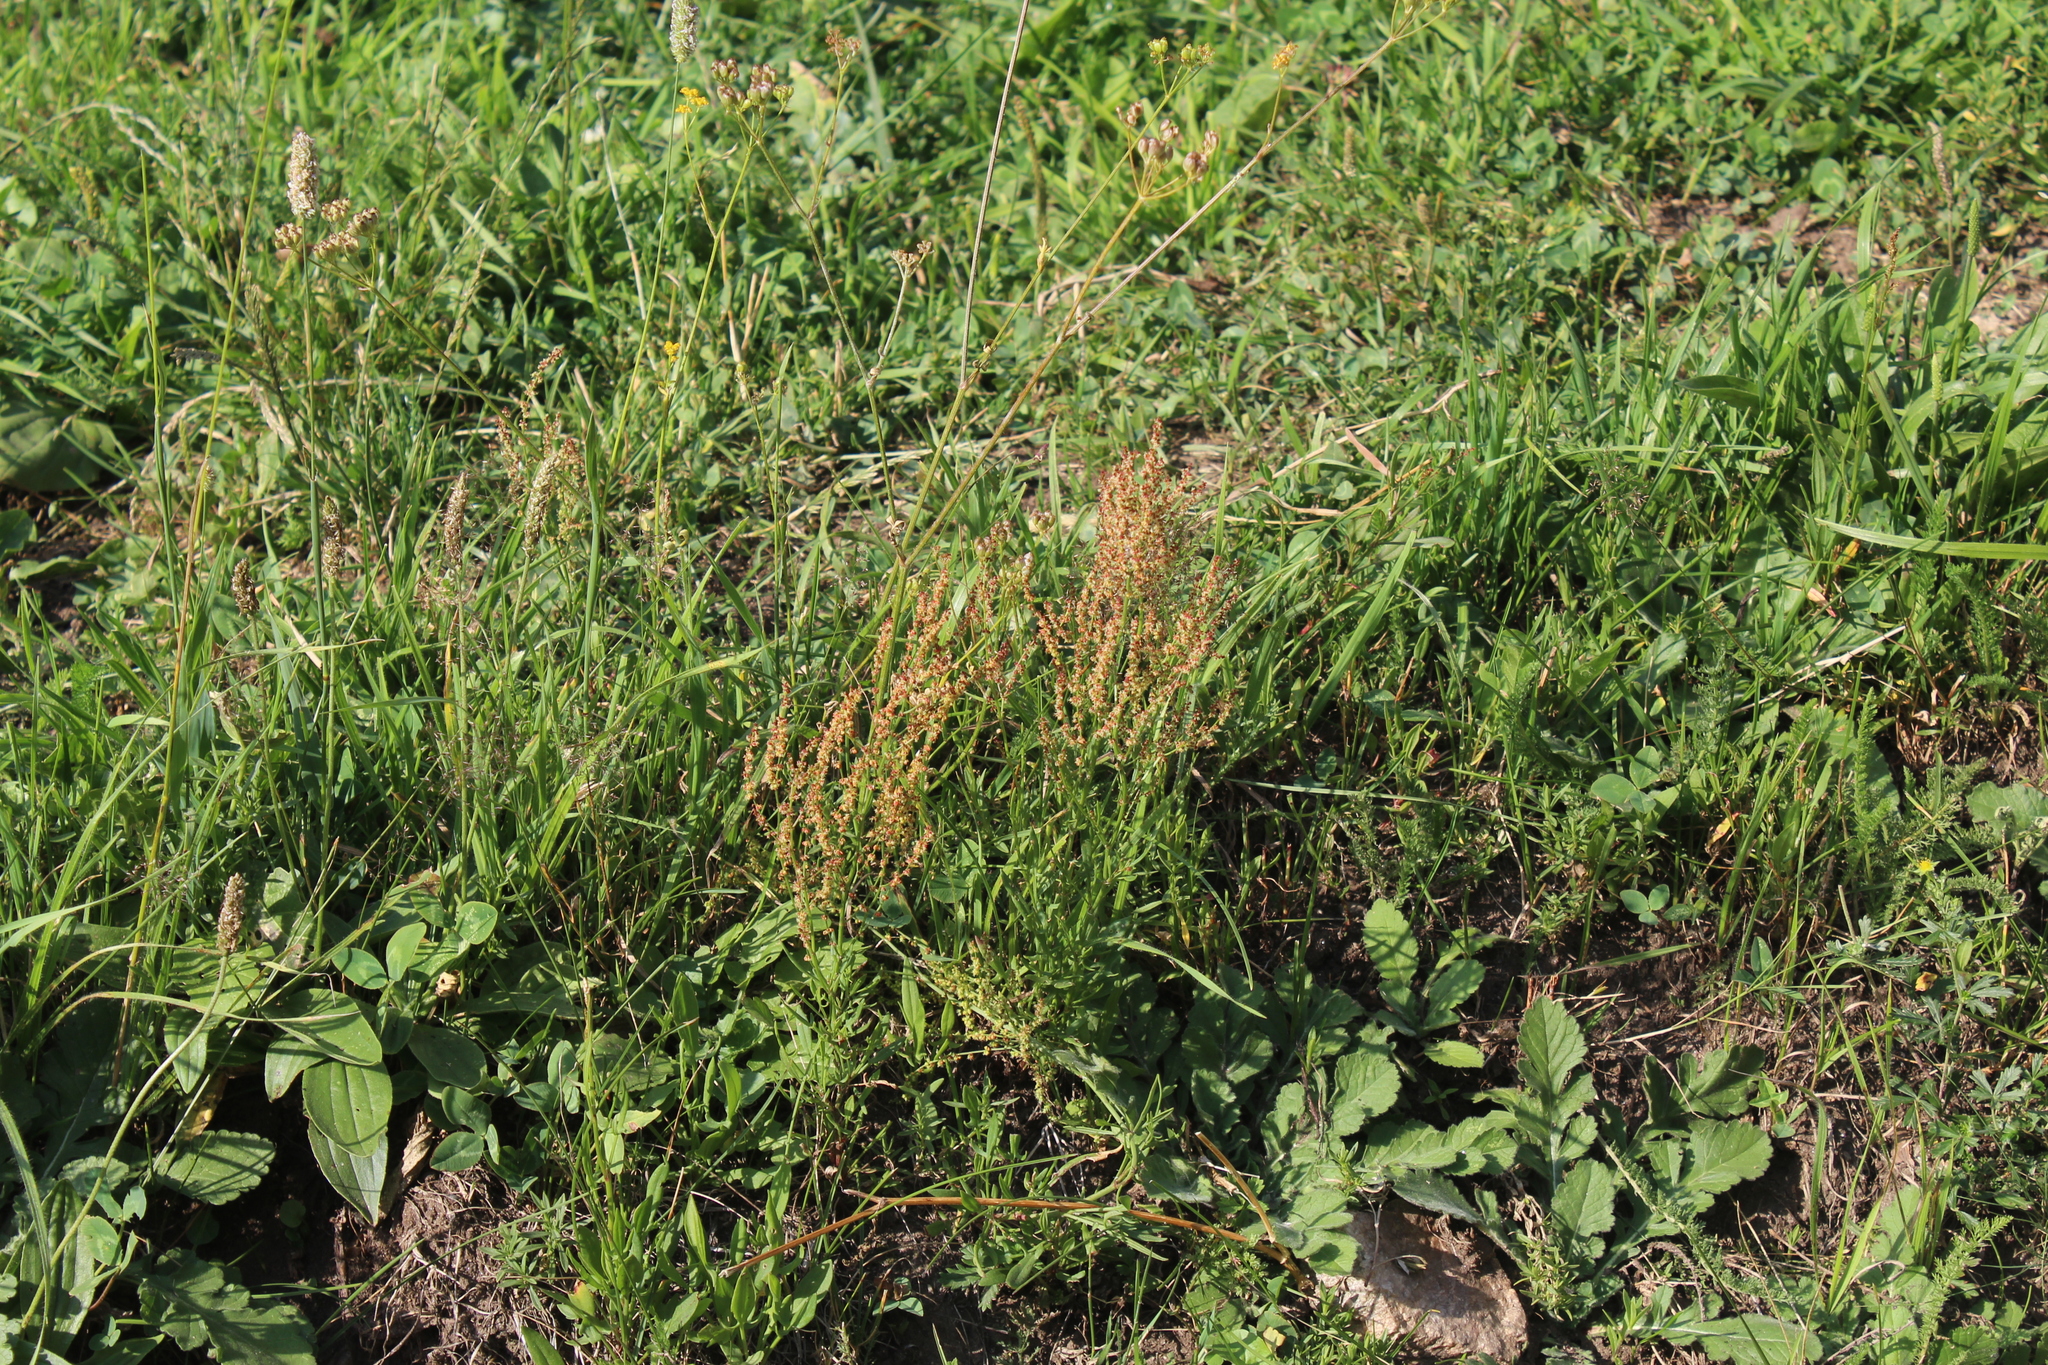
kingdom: Plantae
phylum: Tracheophyta
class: Magnoliopsida
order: Caryophyllales
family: Polygonaceae
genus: Rumex
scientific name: Rumex acetosella
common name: Common sheep sorrel
